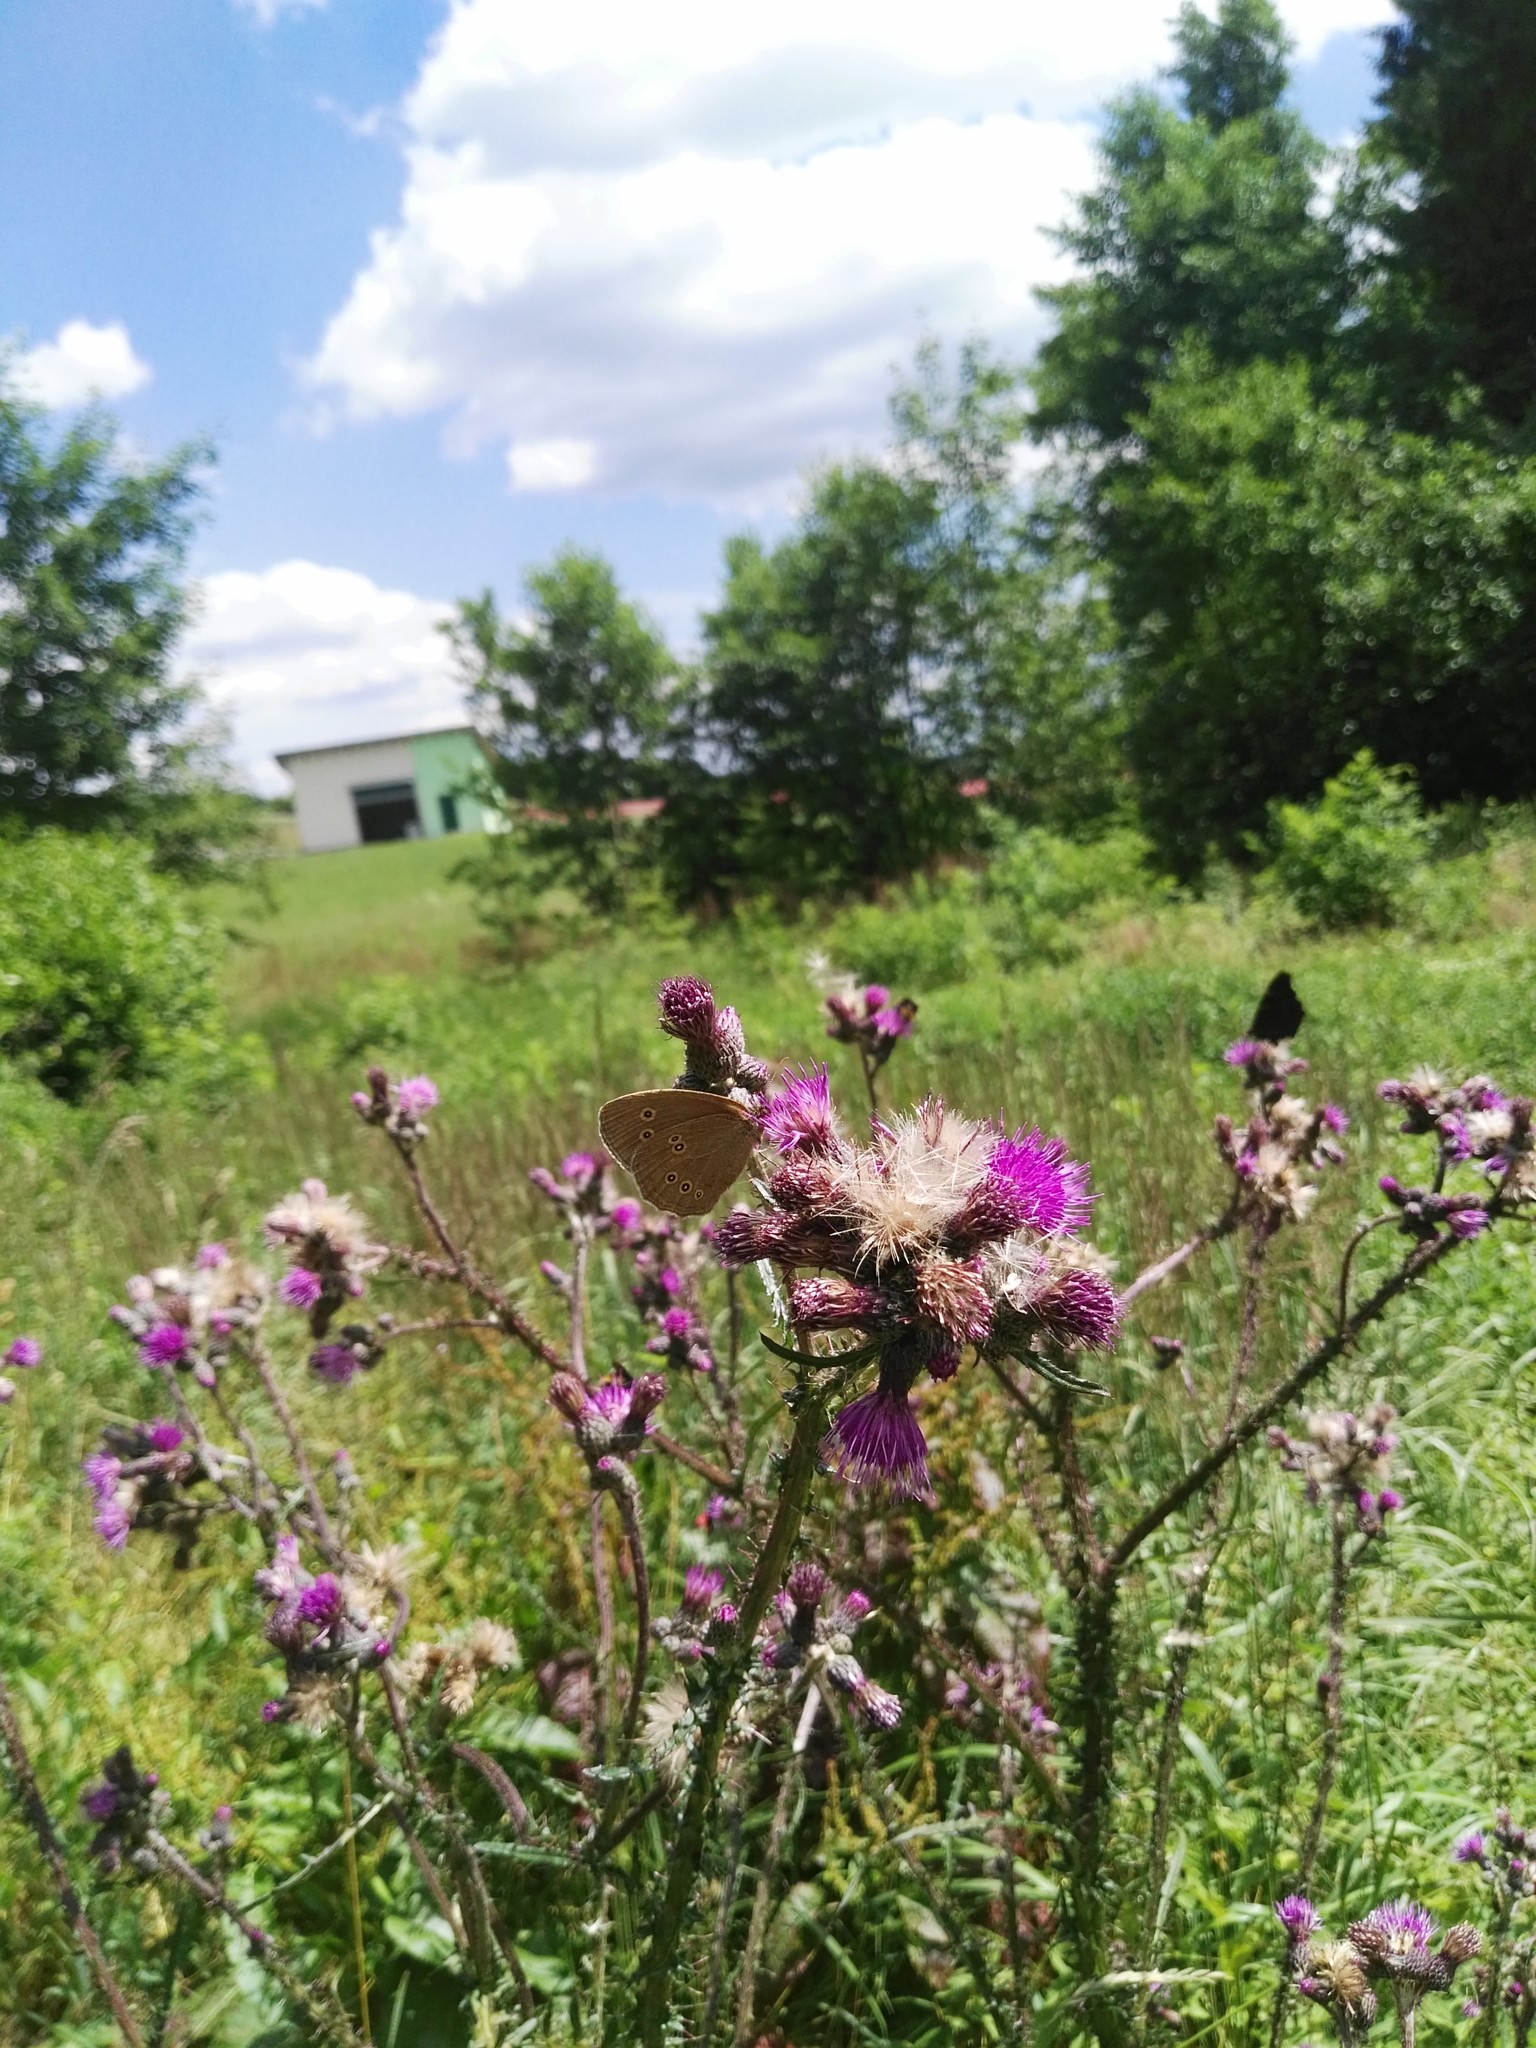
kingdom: Animalia
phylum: Arthropoda
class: Insecta
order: Lepidoptera
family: Nymphalidae
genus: Aphantopus
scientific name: Aphantopus hyperantus
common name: Ringlet
